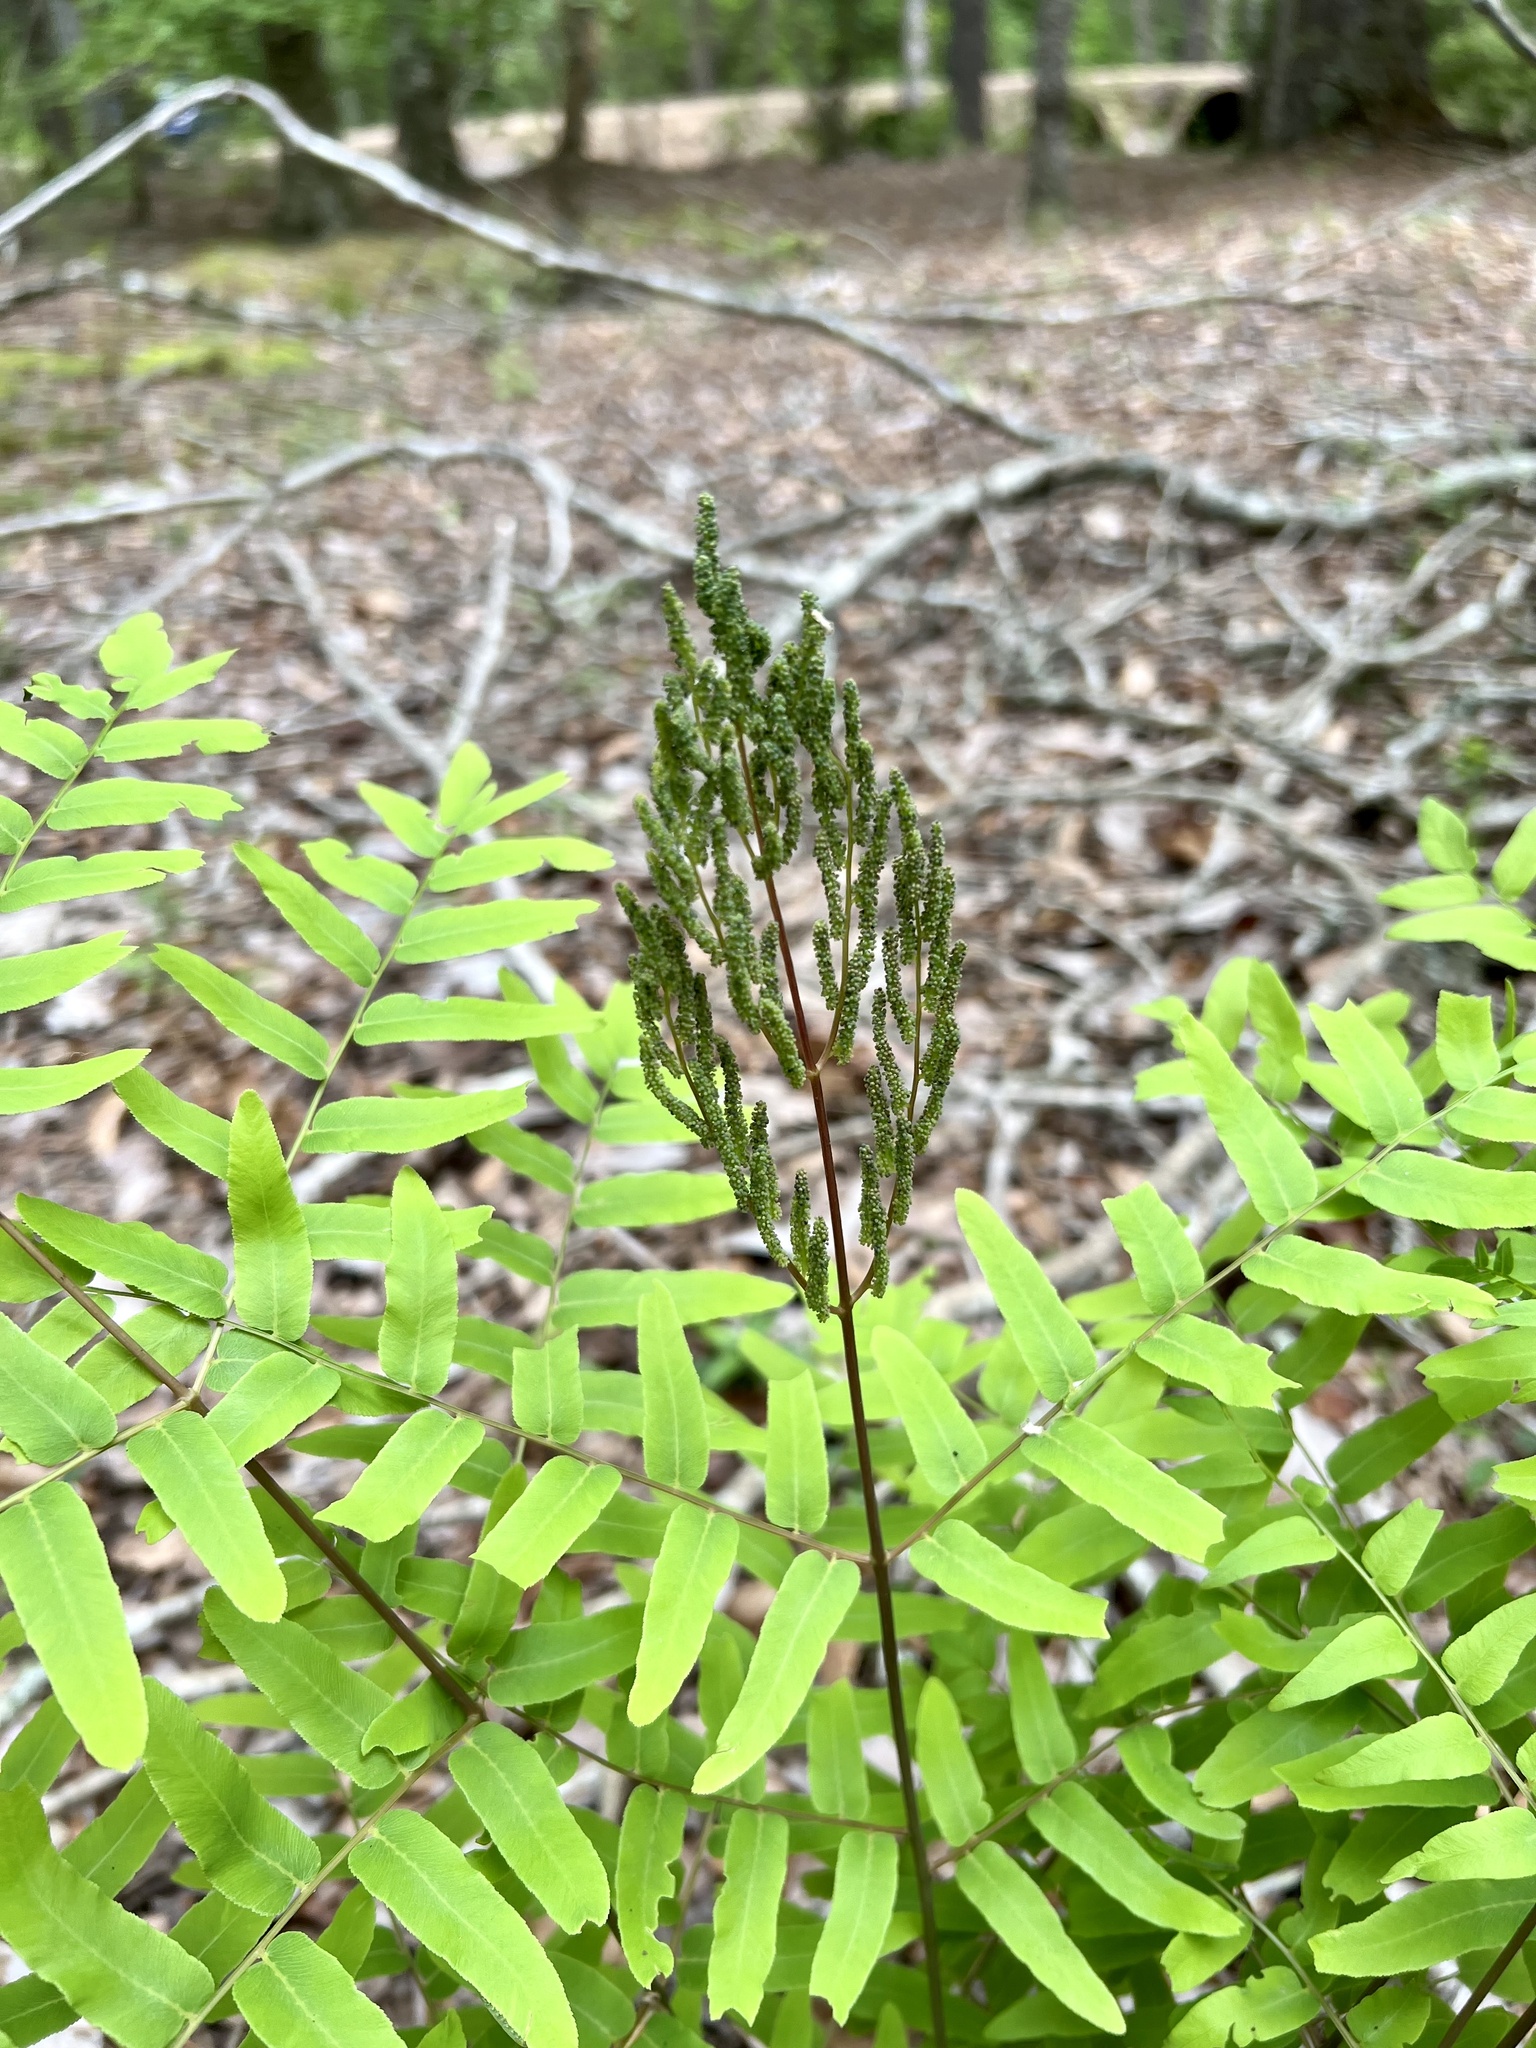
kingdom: Plantae
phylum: Tracheophyta
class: Polypodiopsida
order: Osmundales
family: Osmundaceae
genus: Osmunda
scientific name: Osmunda spectabilis
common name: American royal fern
